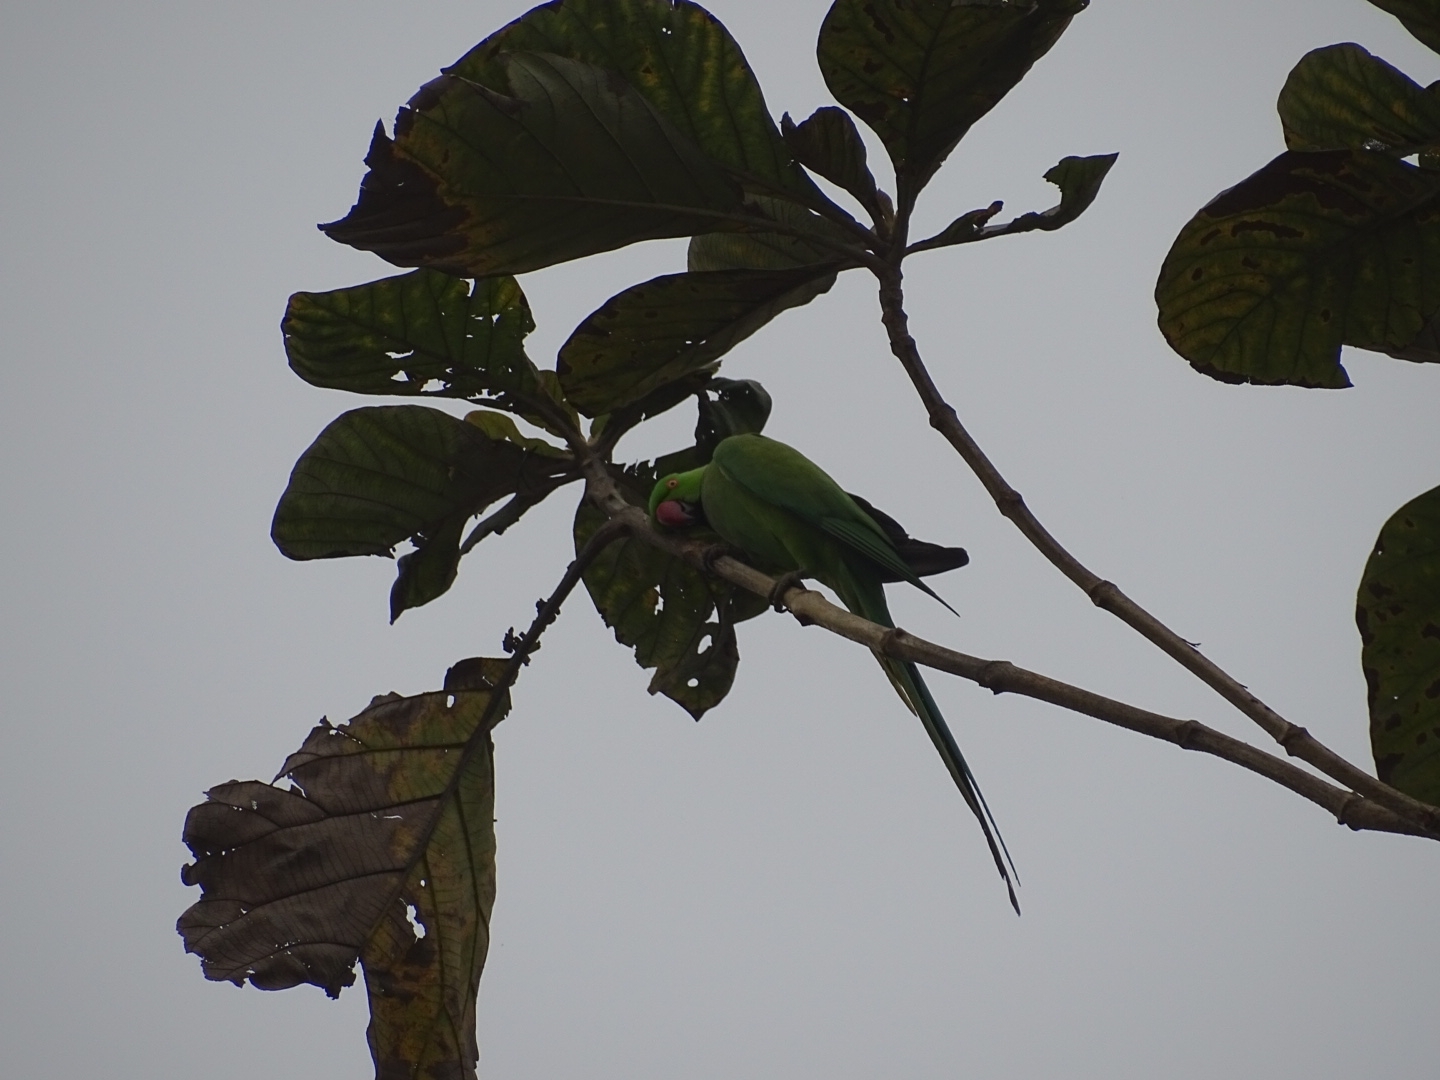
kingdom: Animalia
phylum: Chordata
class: Aves
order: Psittaciformes
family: Psittacidae
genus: Psittacula
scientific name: Psittacula krameri
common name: Rose-ringed parakeet
